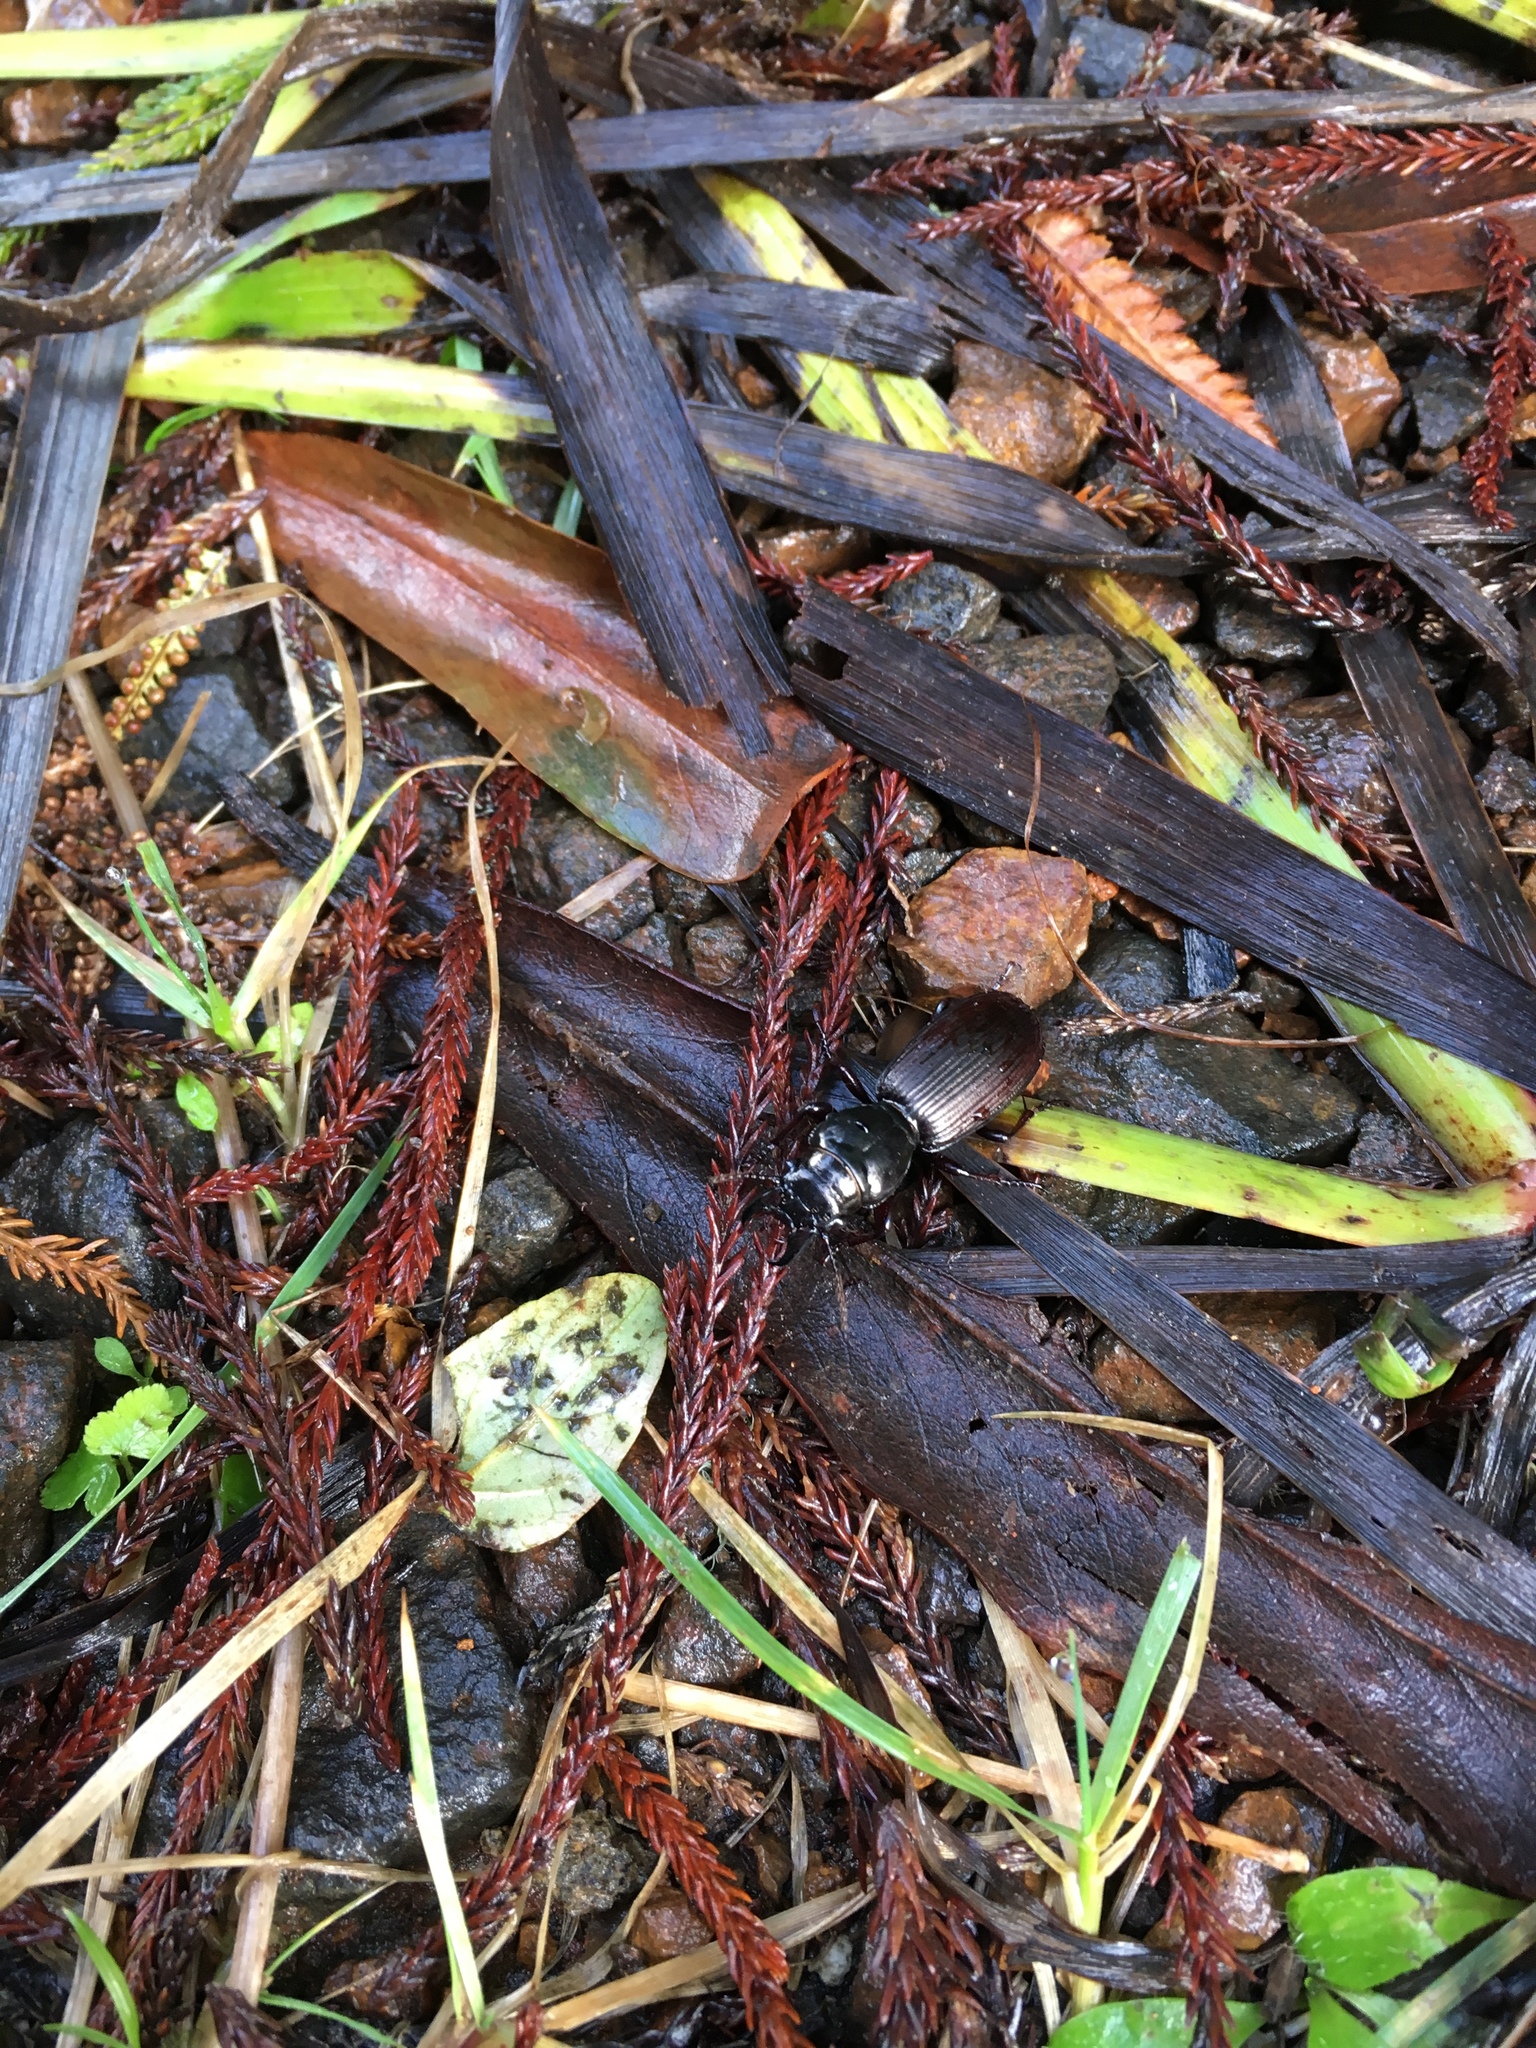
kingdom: Animalia
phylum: Arthropoda
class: Insecta
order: Coleoptera
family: Carabidae
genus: Mecodema
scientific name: Mecodema spiniferum
